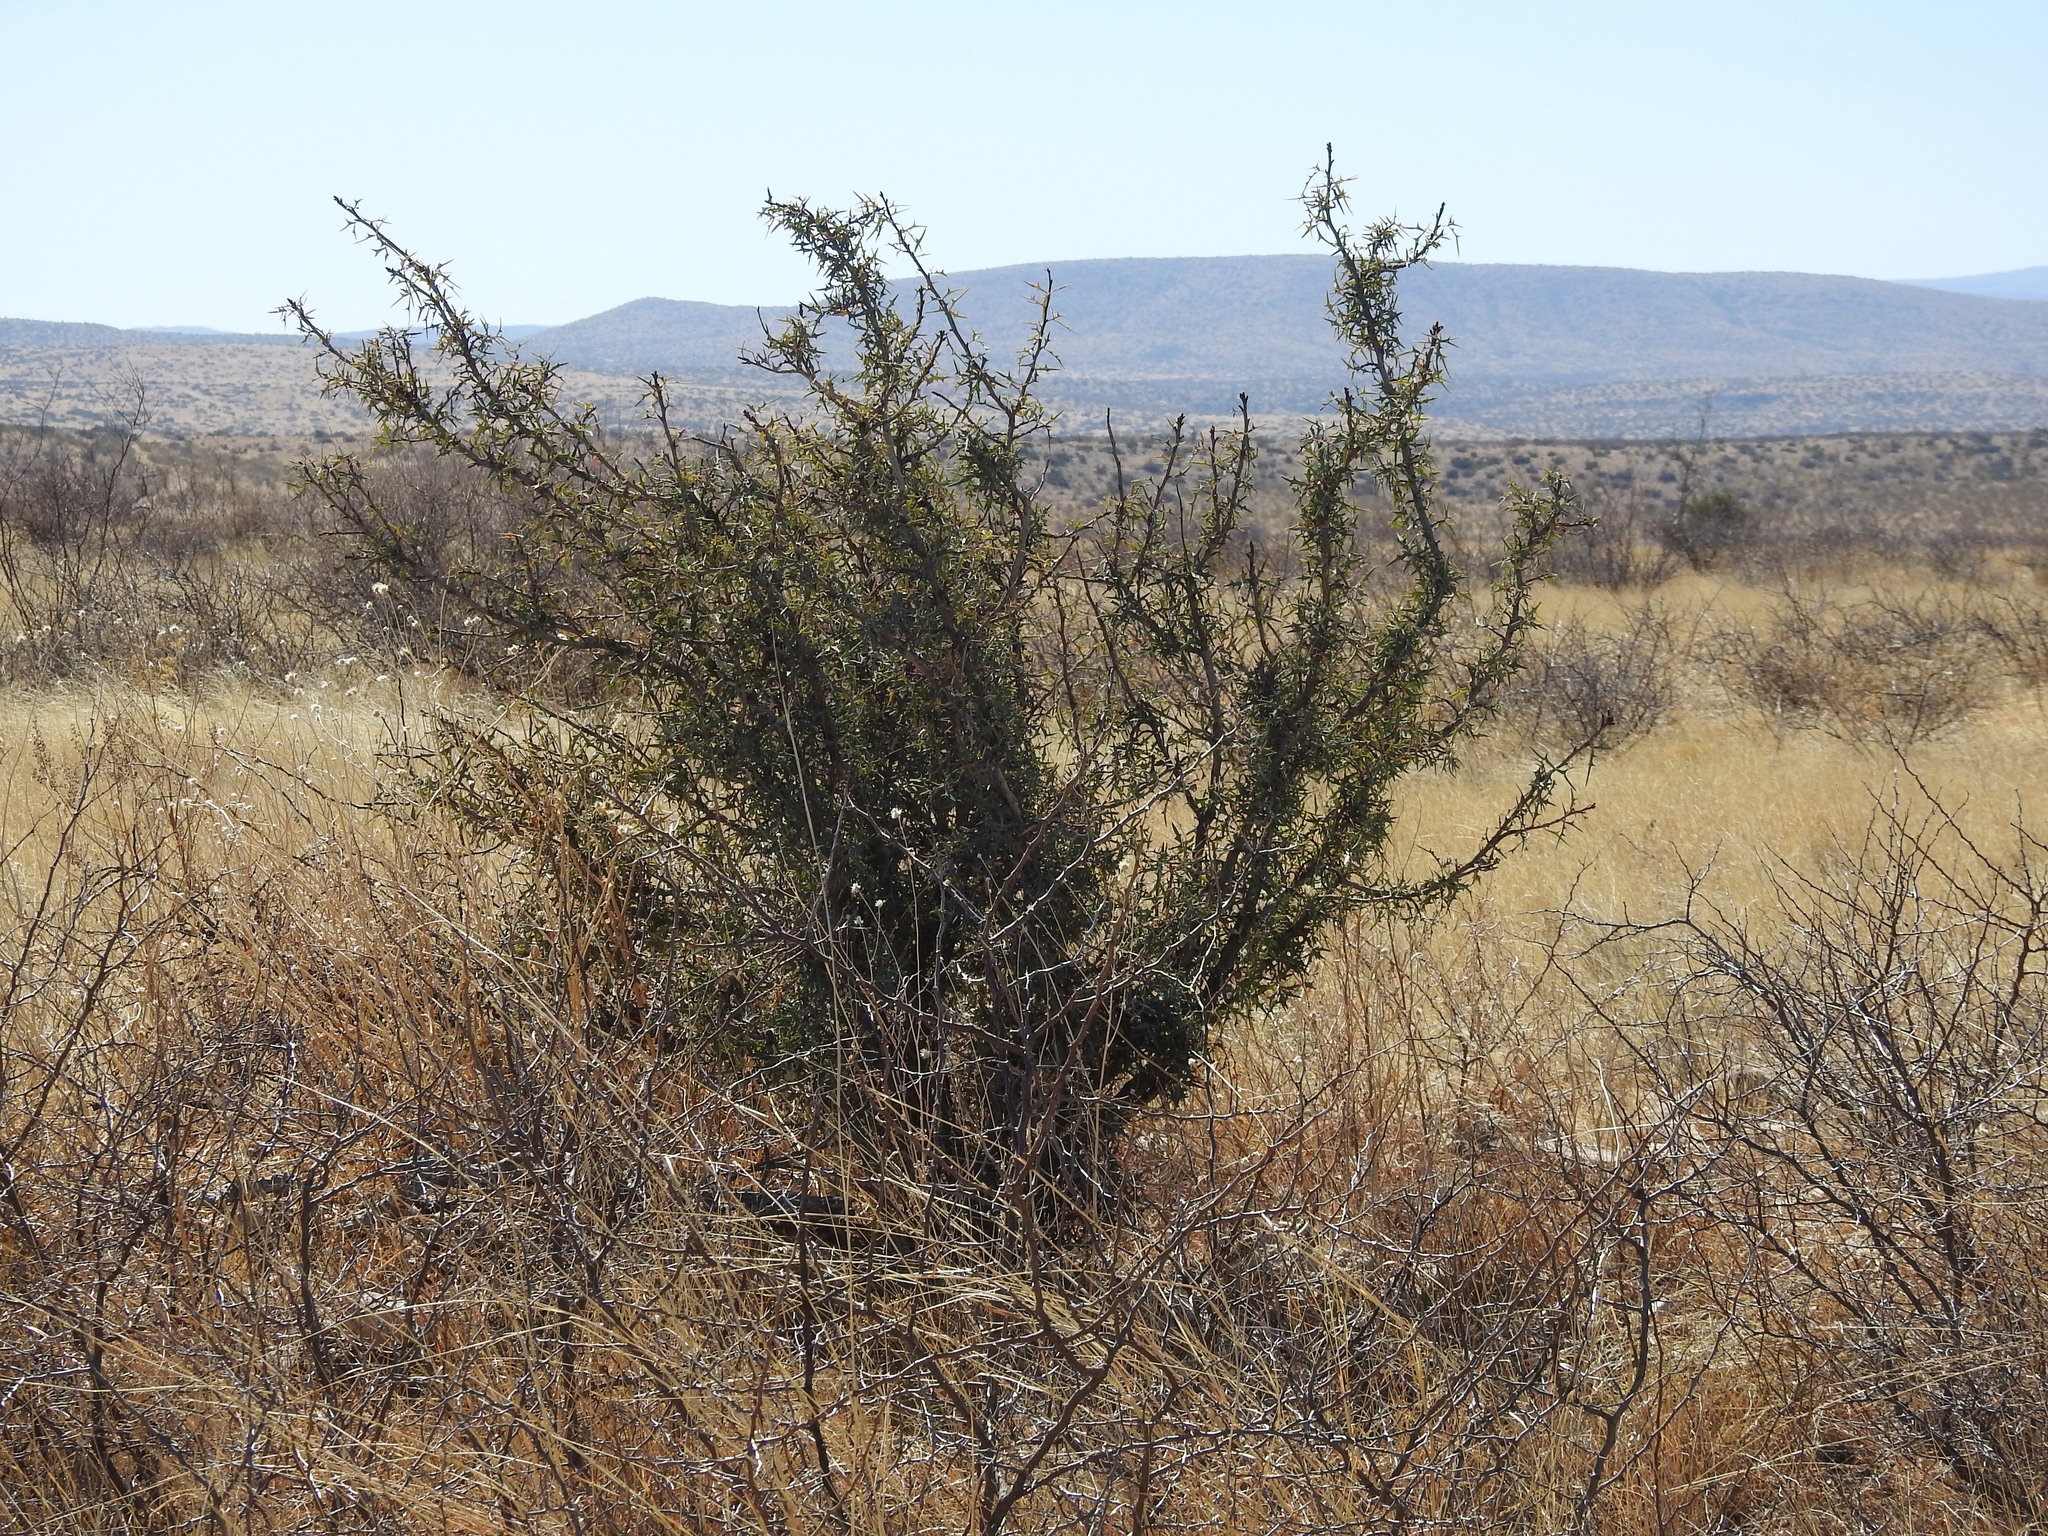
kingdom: Plantae
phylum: Tracheophyta
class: Magnoliopsida
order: Ranunculales
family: Berberidaceae
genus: Alloberberis
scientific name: Alloberberis trifoliolata
